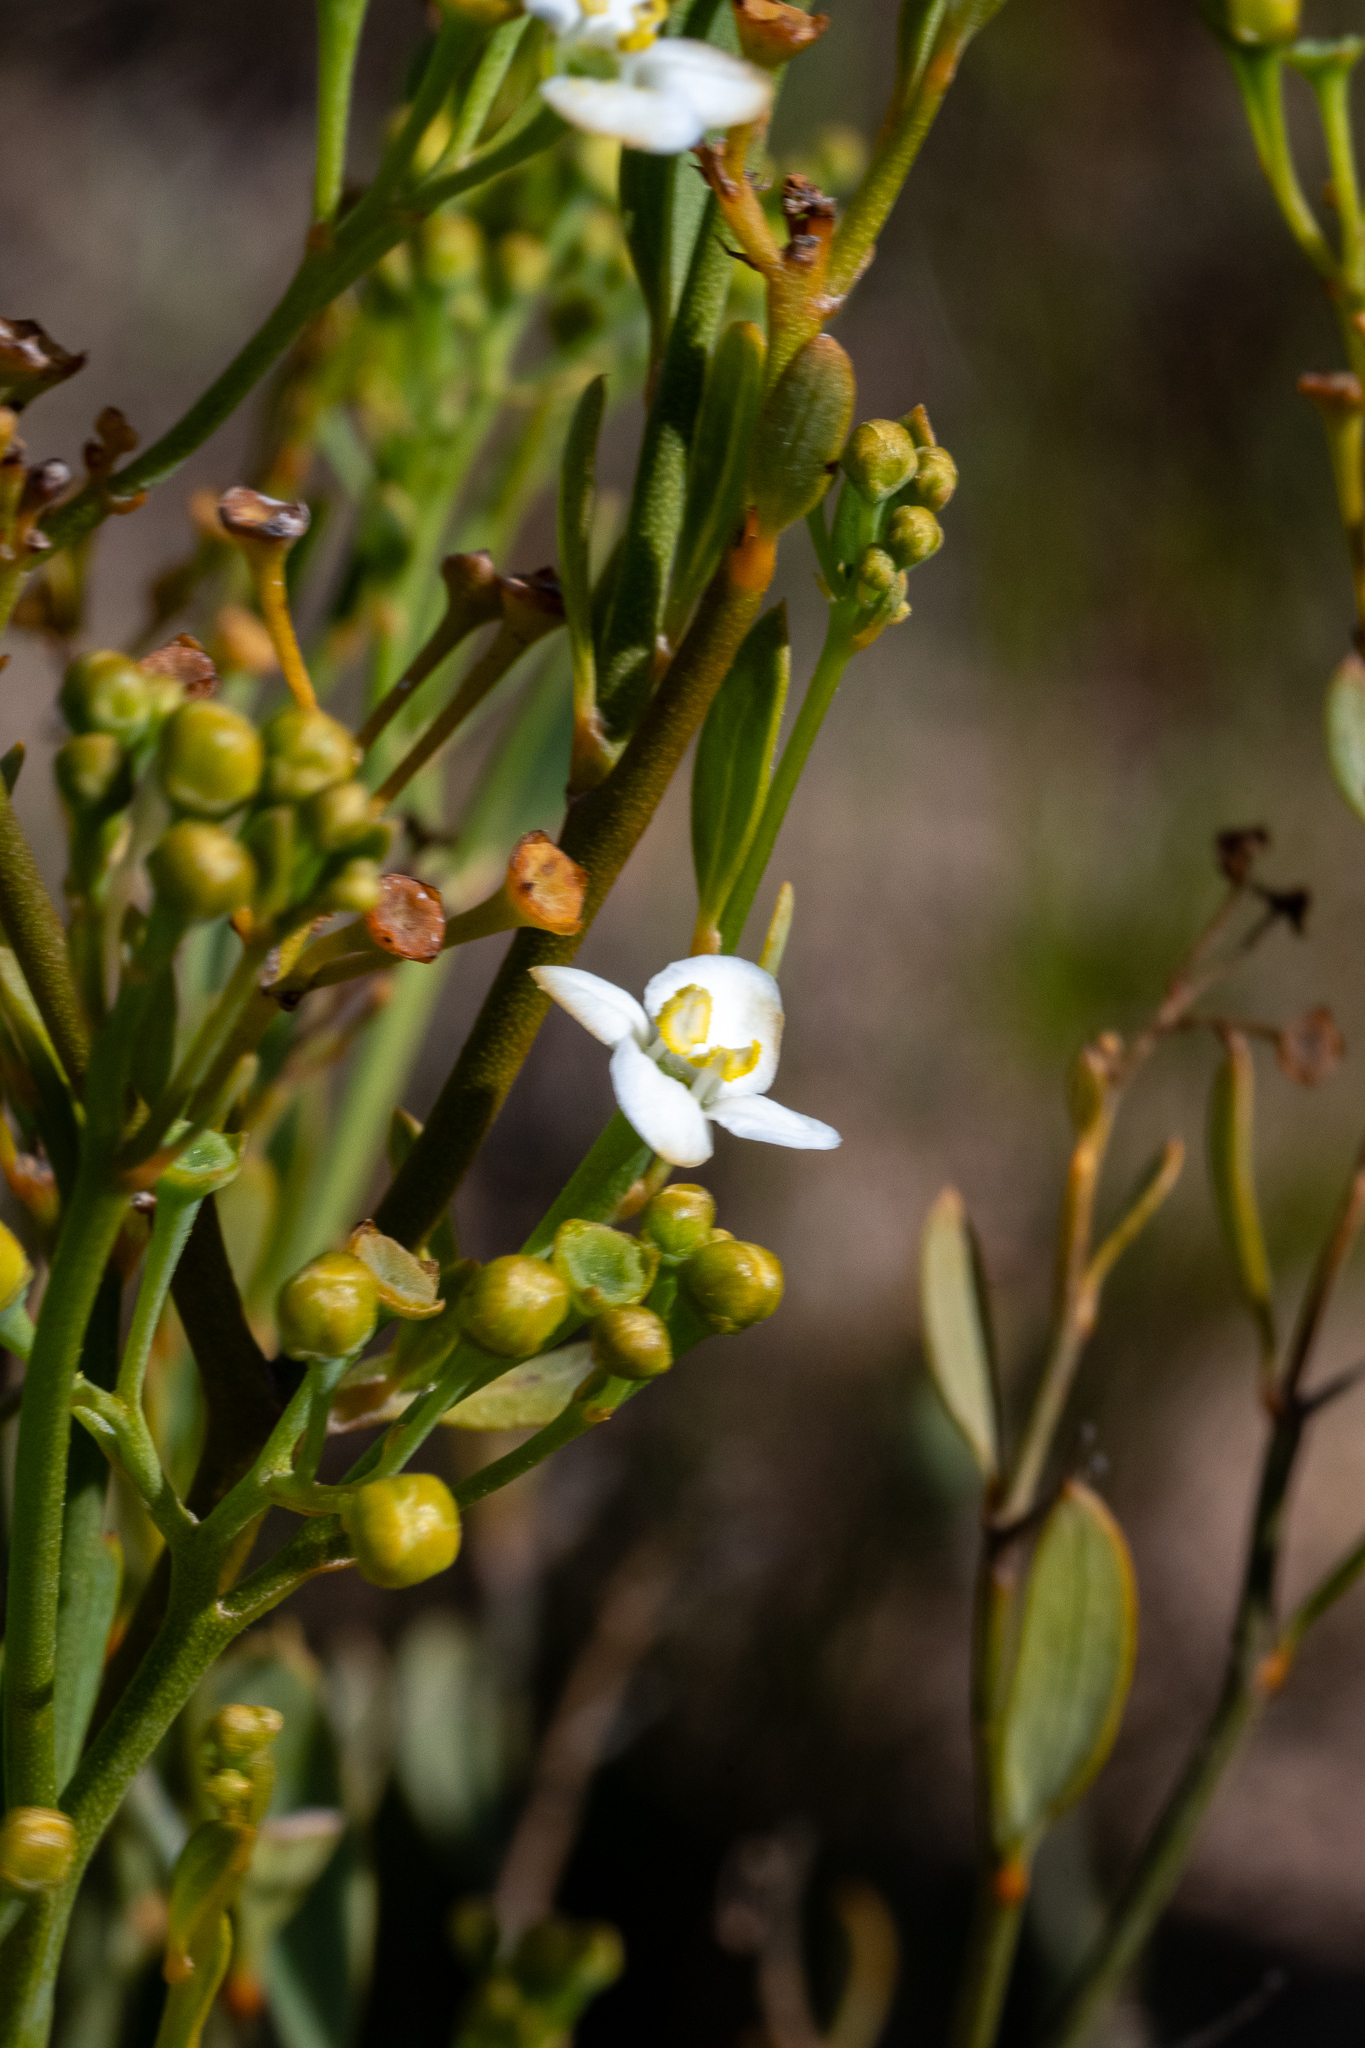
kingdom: Plantae
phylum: Tracheophyta
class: Magnoliopsida
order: Solanales
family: Montiniaceae
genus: Montinia
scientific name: Montinia caryophyllacea
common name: Wild clove-bush
